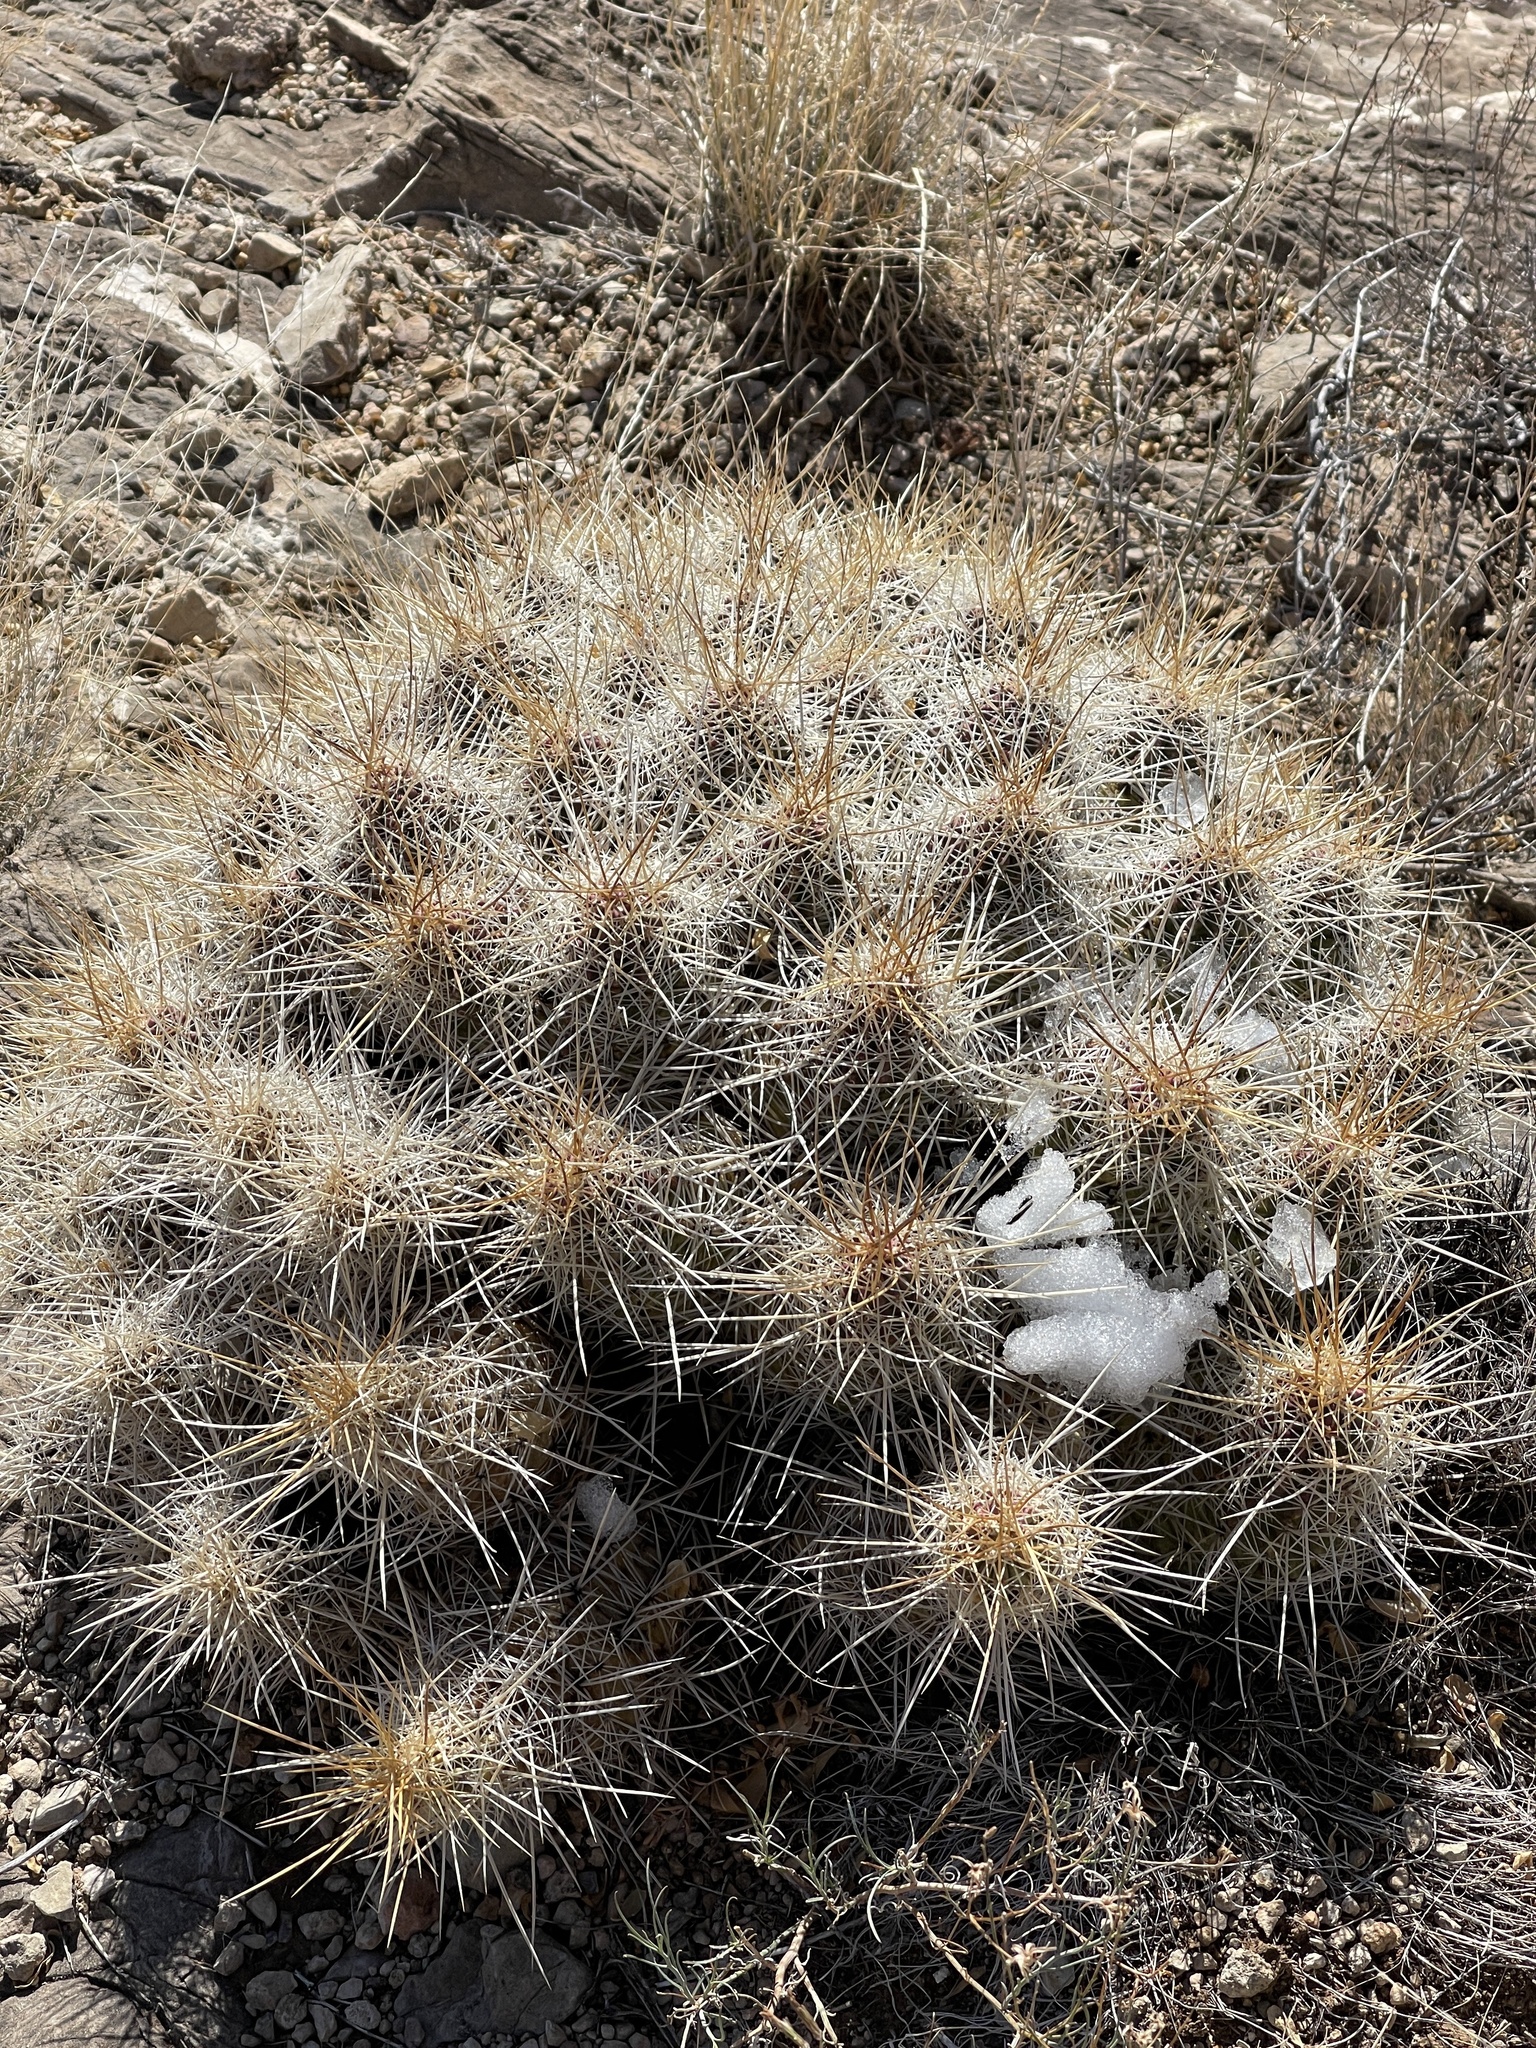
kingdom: Plantae
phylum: Tracheophyta
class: Magnoliopsida
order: Caryophyllales
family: Cactaceae
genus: Echinocereus
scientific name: Echinocereus stramineus
